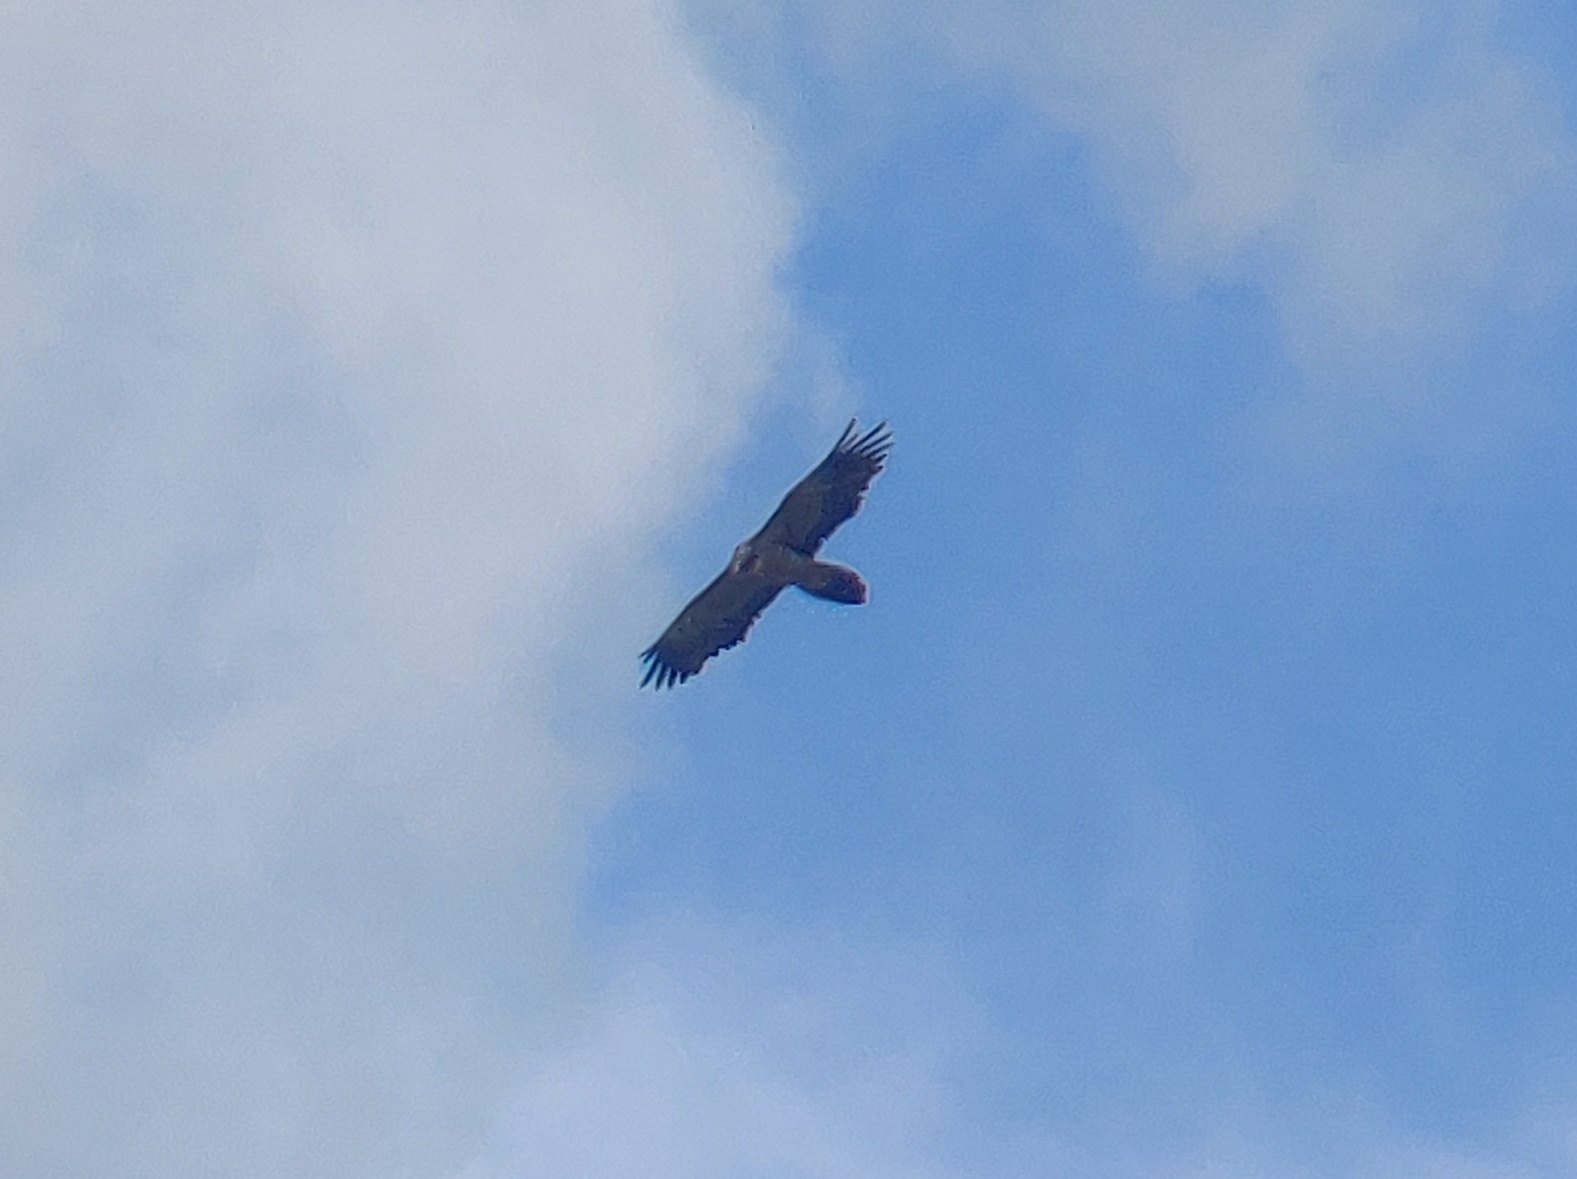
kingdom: Animalia
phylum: Chordata
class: Aves
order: Accipitriformes
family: Accipitridae
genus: Gypaetus
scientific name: Gypaetus barbatus
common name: Bearded vulture
